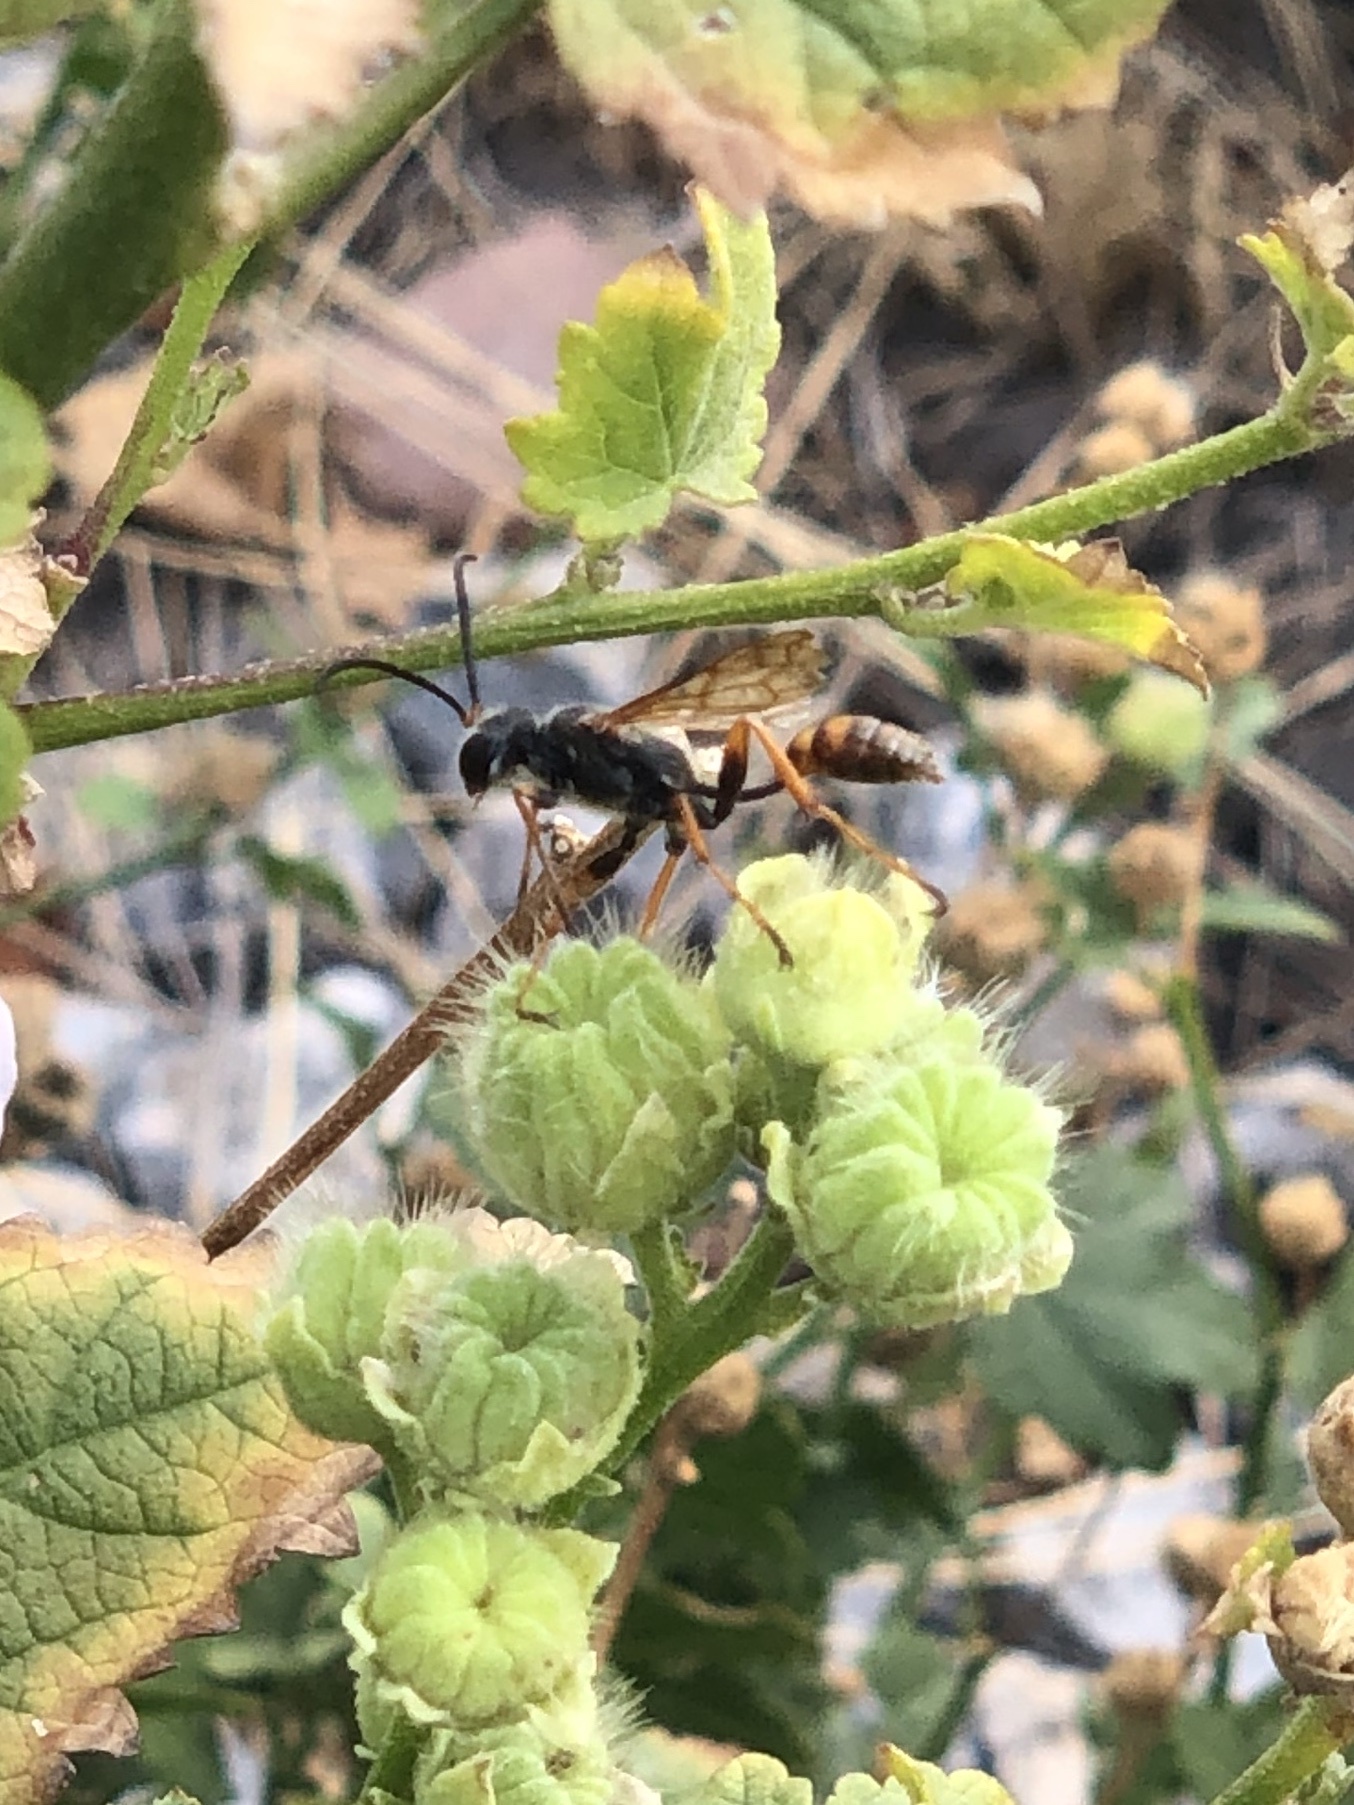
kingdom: Animalia
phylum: Arthropoda
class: Insecta
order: Hymenoptera
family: Sphecidae
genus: Isodontia
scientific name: Isodontia elegans
